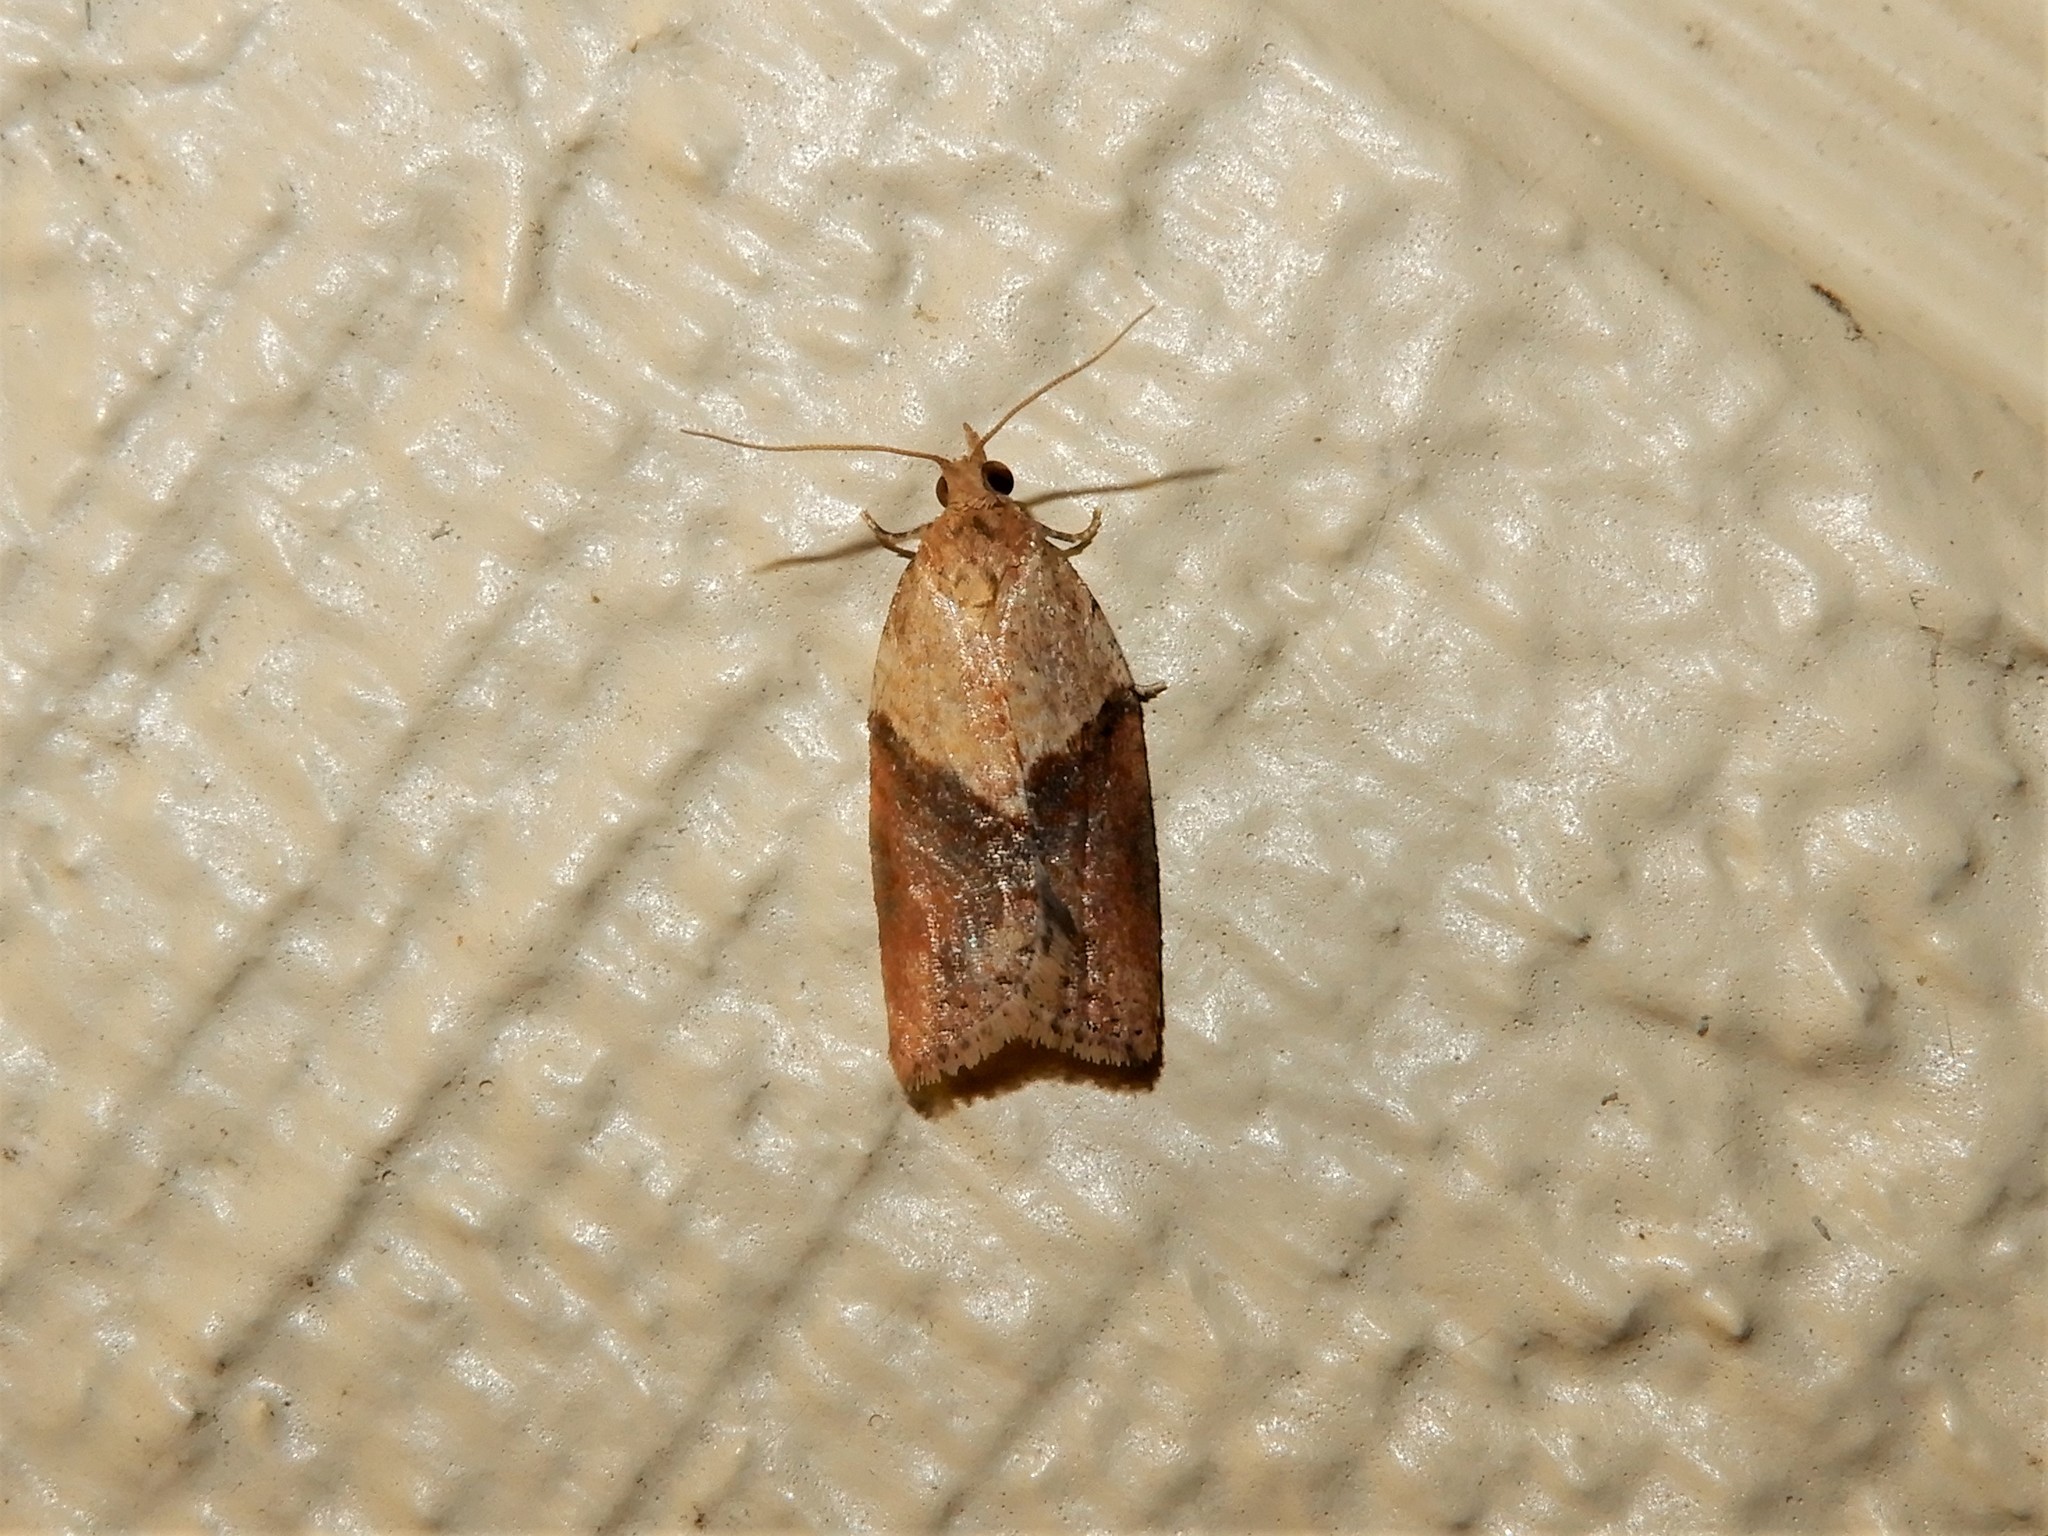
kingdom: Animalia
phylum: Arthropoda
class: Insecta
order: Lepidoptera
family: Tortricidae
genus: Epiphyas
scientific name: Epiphyas postvittana
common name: Light brown apple moth
